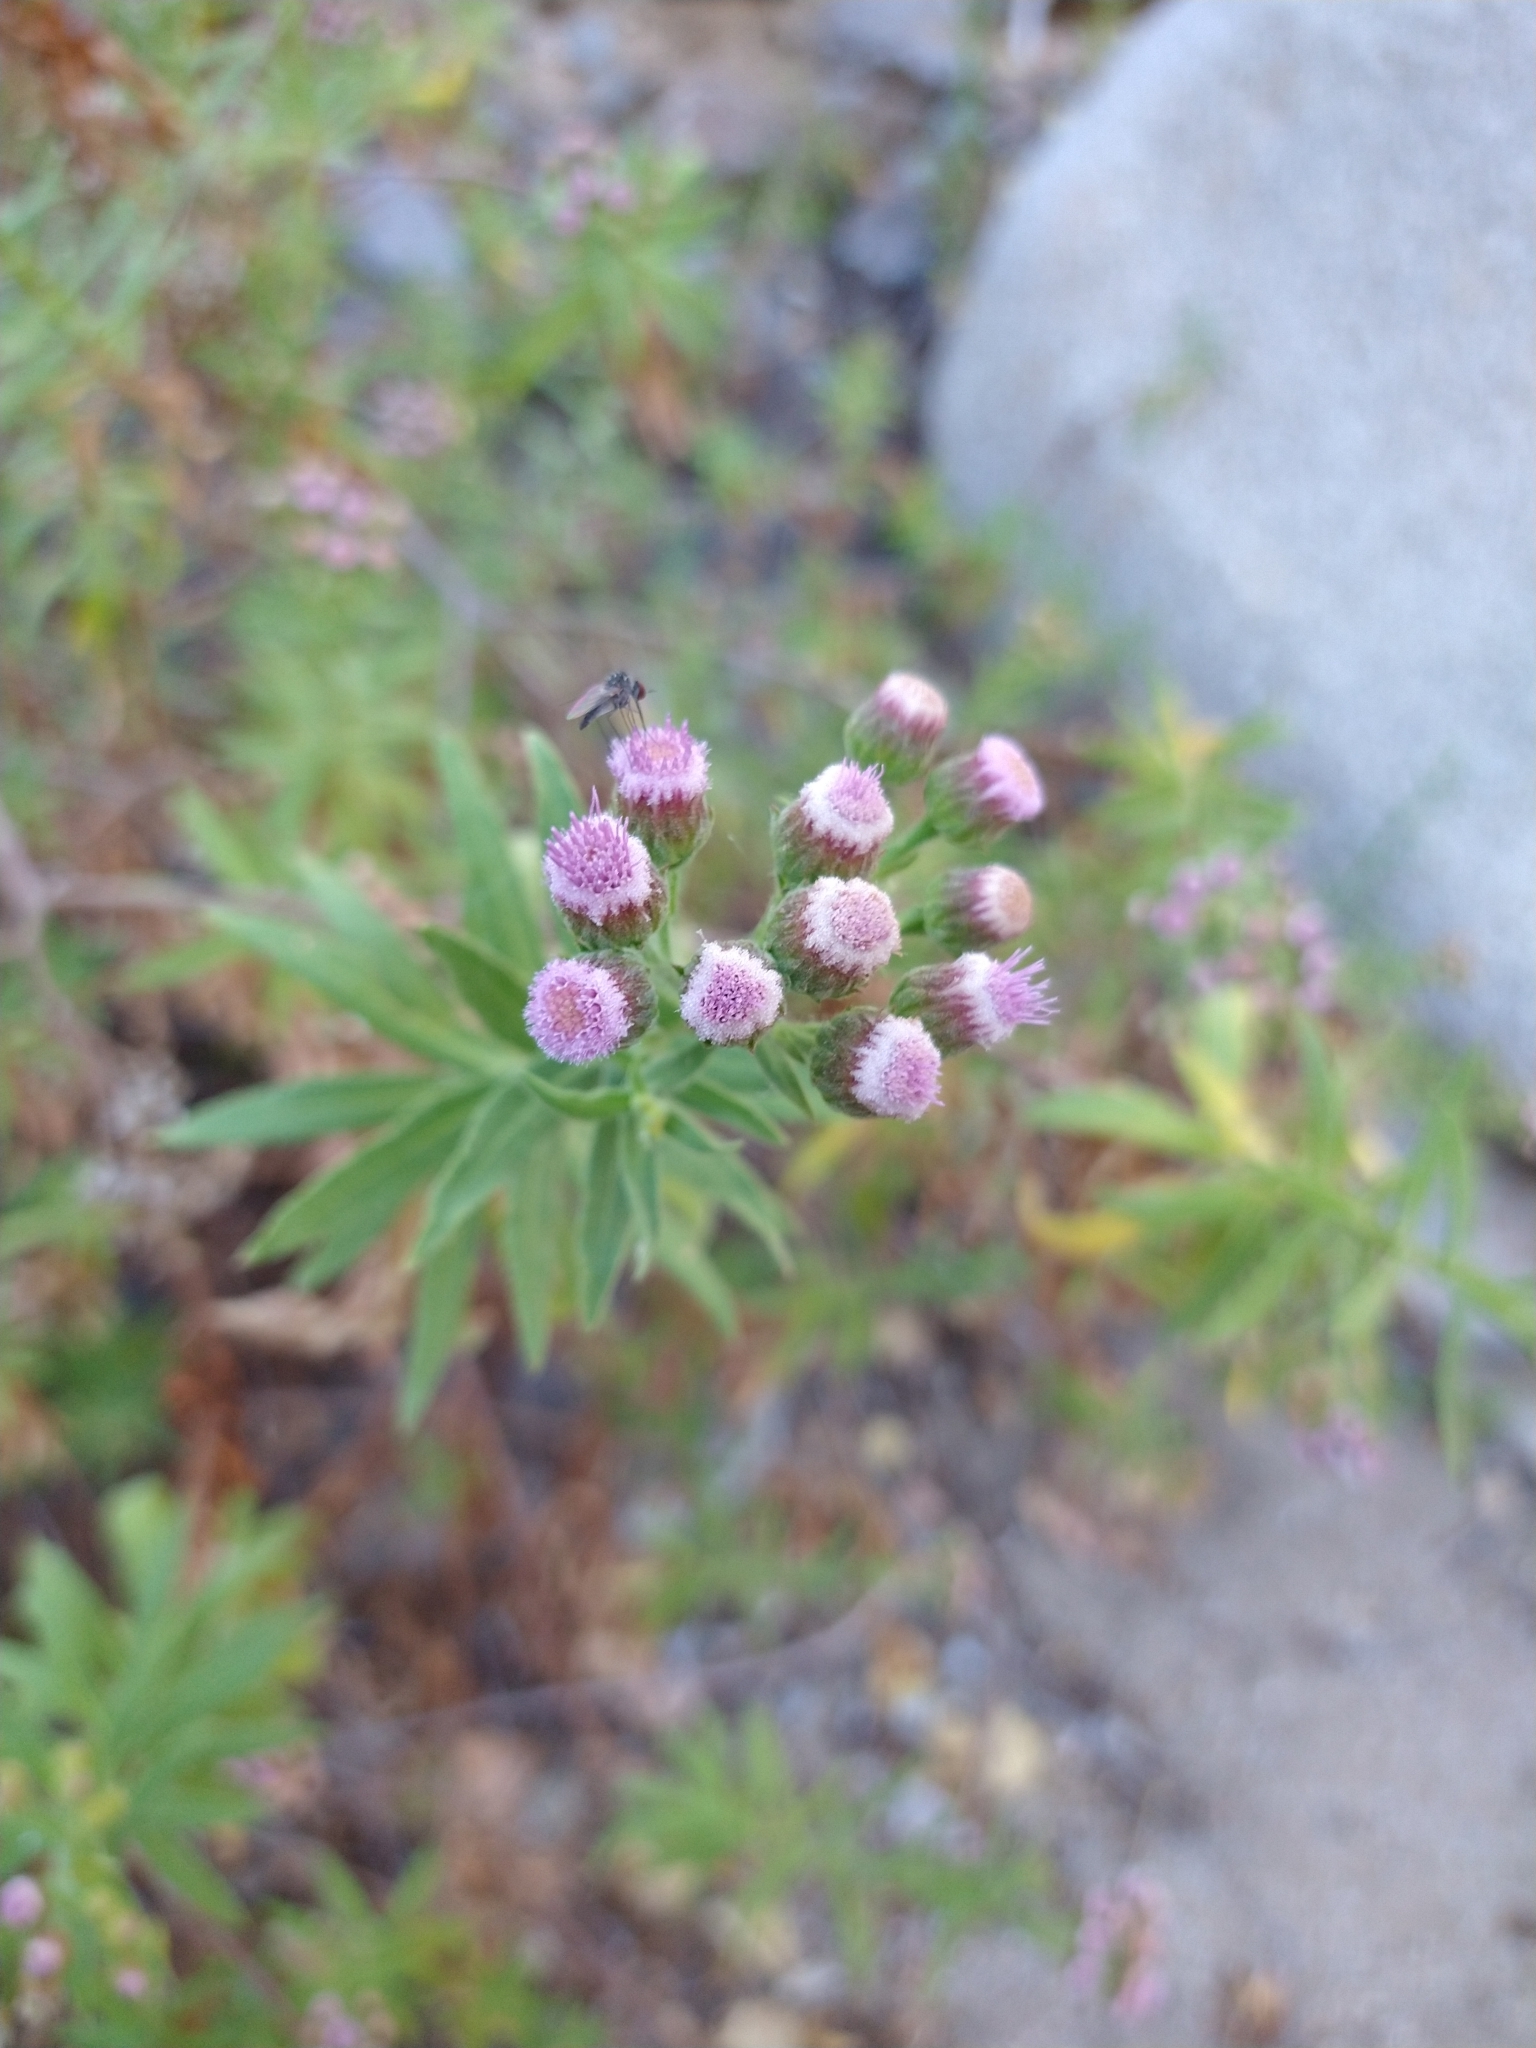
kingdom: Plantae
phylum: Tracheophyta
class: Magnoliopsida
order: Asterales
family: Asteraceae
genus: Pluchea
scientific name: Pluchea salicifolia
